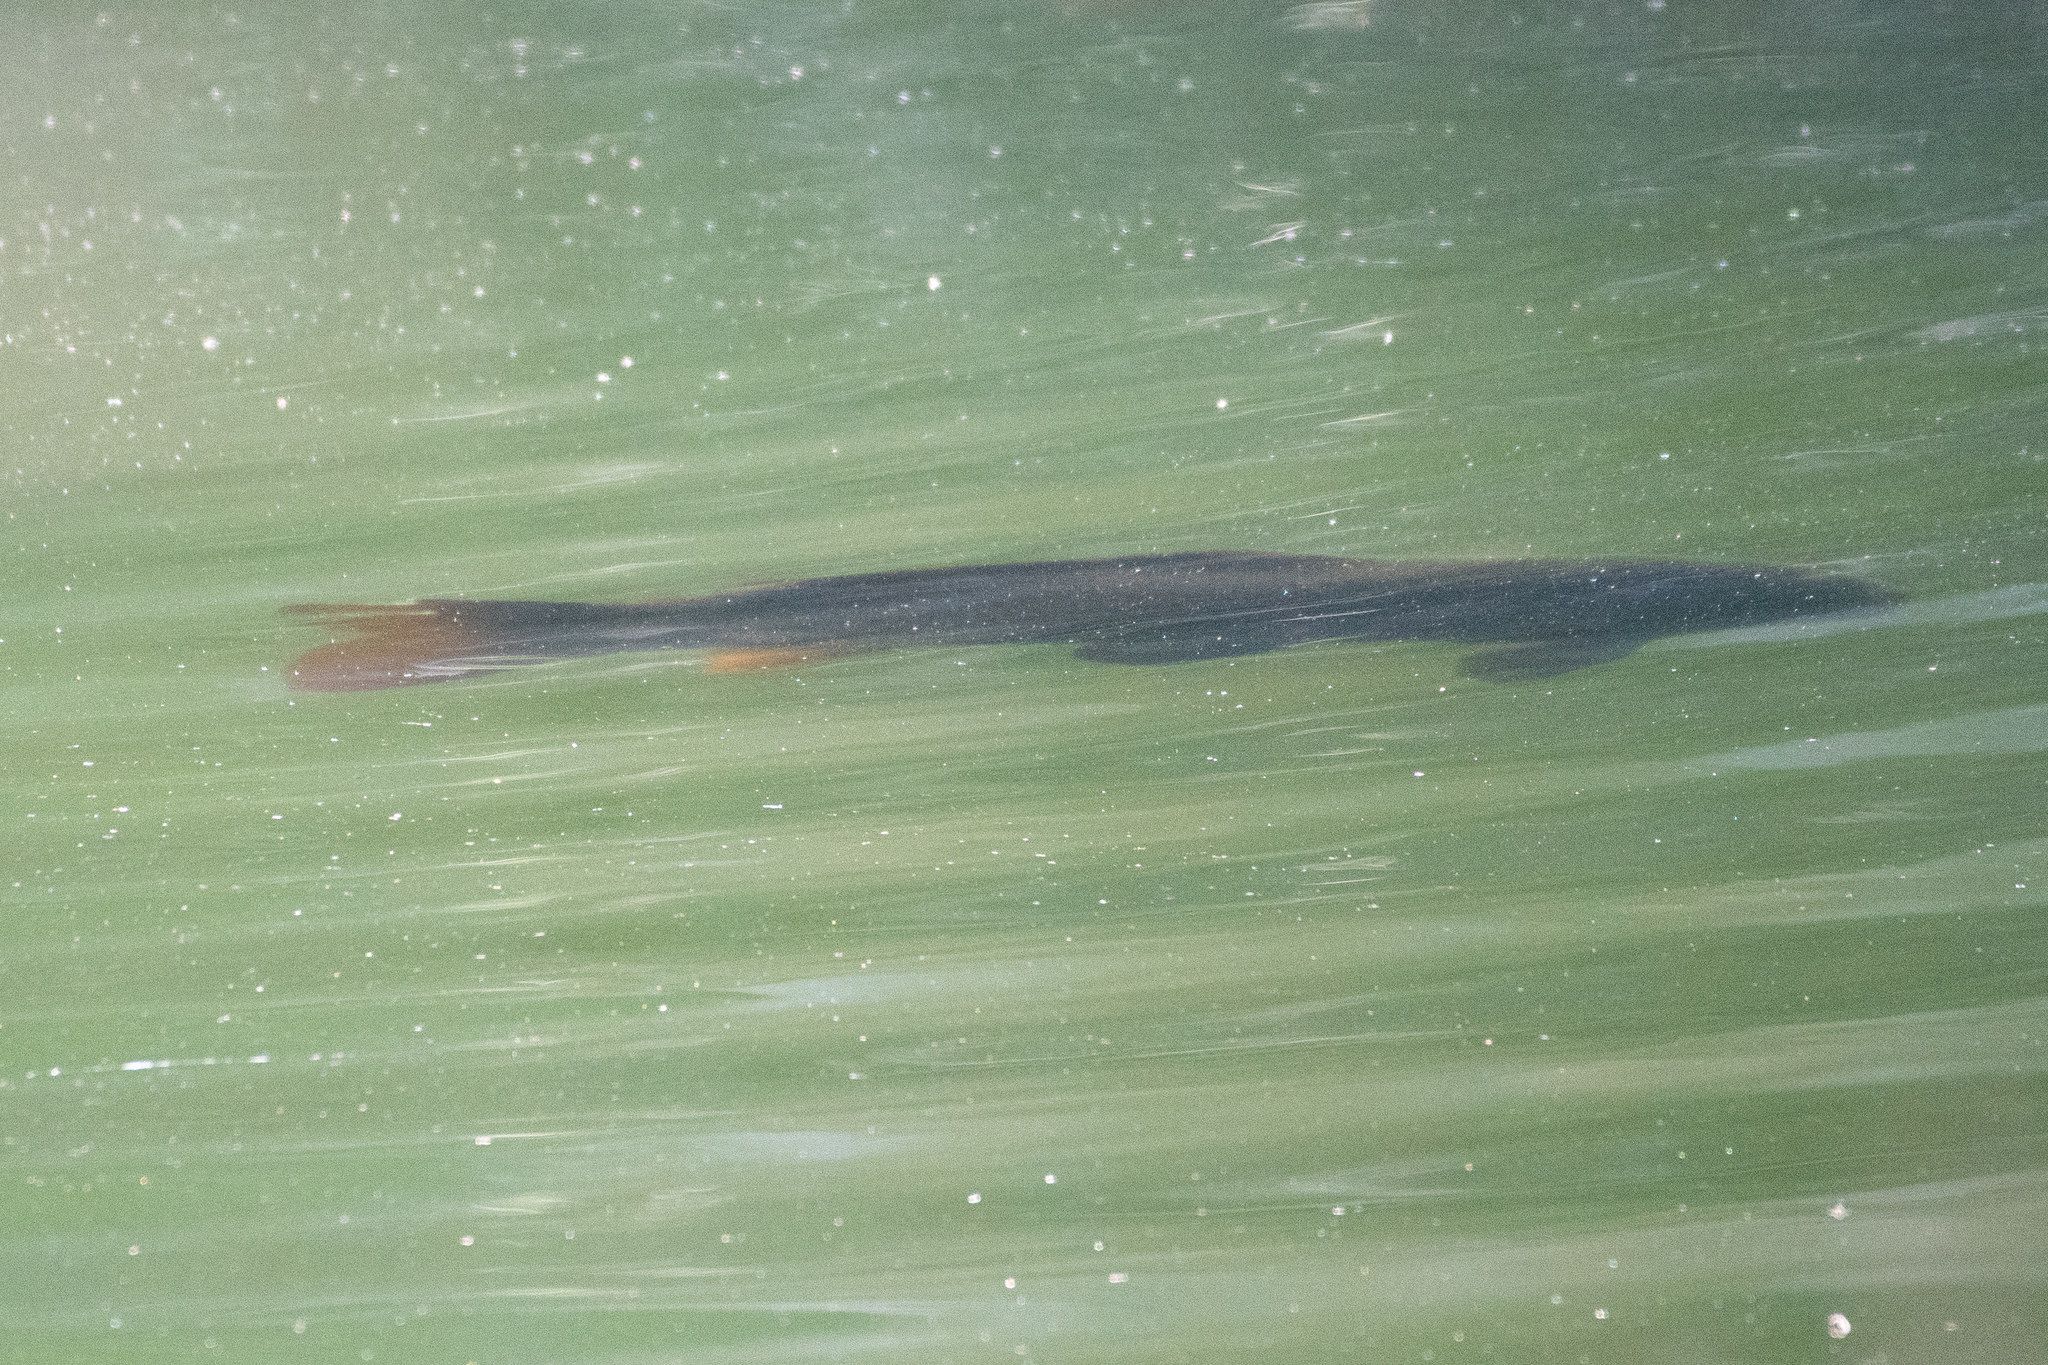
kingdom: Animalia
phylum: Chordata
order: Cypriniformes
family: Cyprinidae
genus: Cyprinus
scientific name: Cyprinus carpio
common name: Common carp
